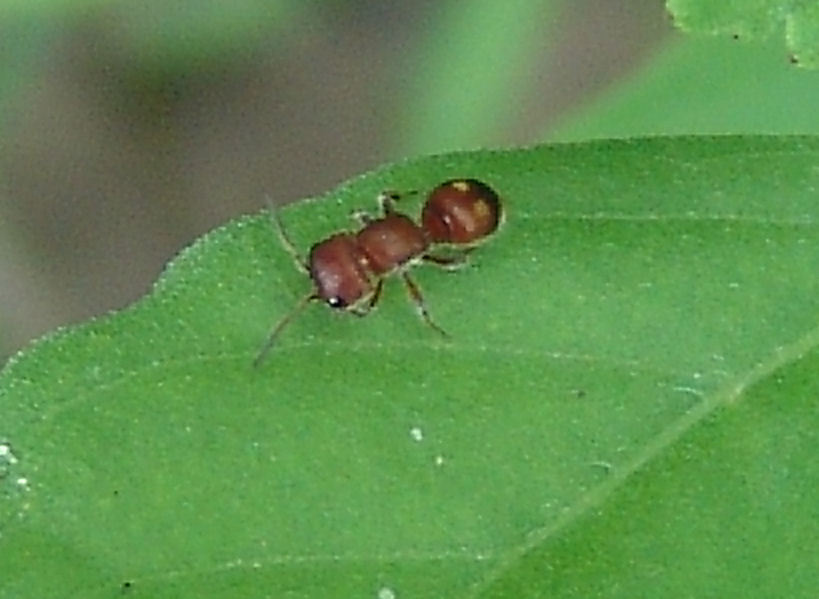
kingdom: Animalia
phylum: Arthropoda
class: Insecta
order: Hymenoptera
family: Mutillidae
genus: Pseudomethoca
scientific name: Pseudomethoca
